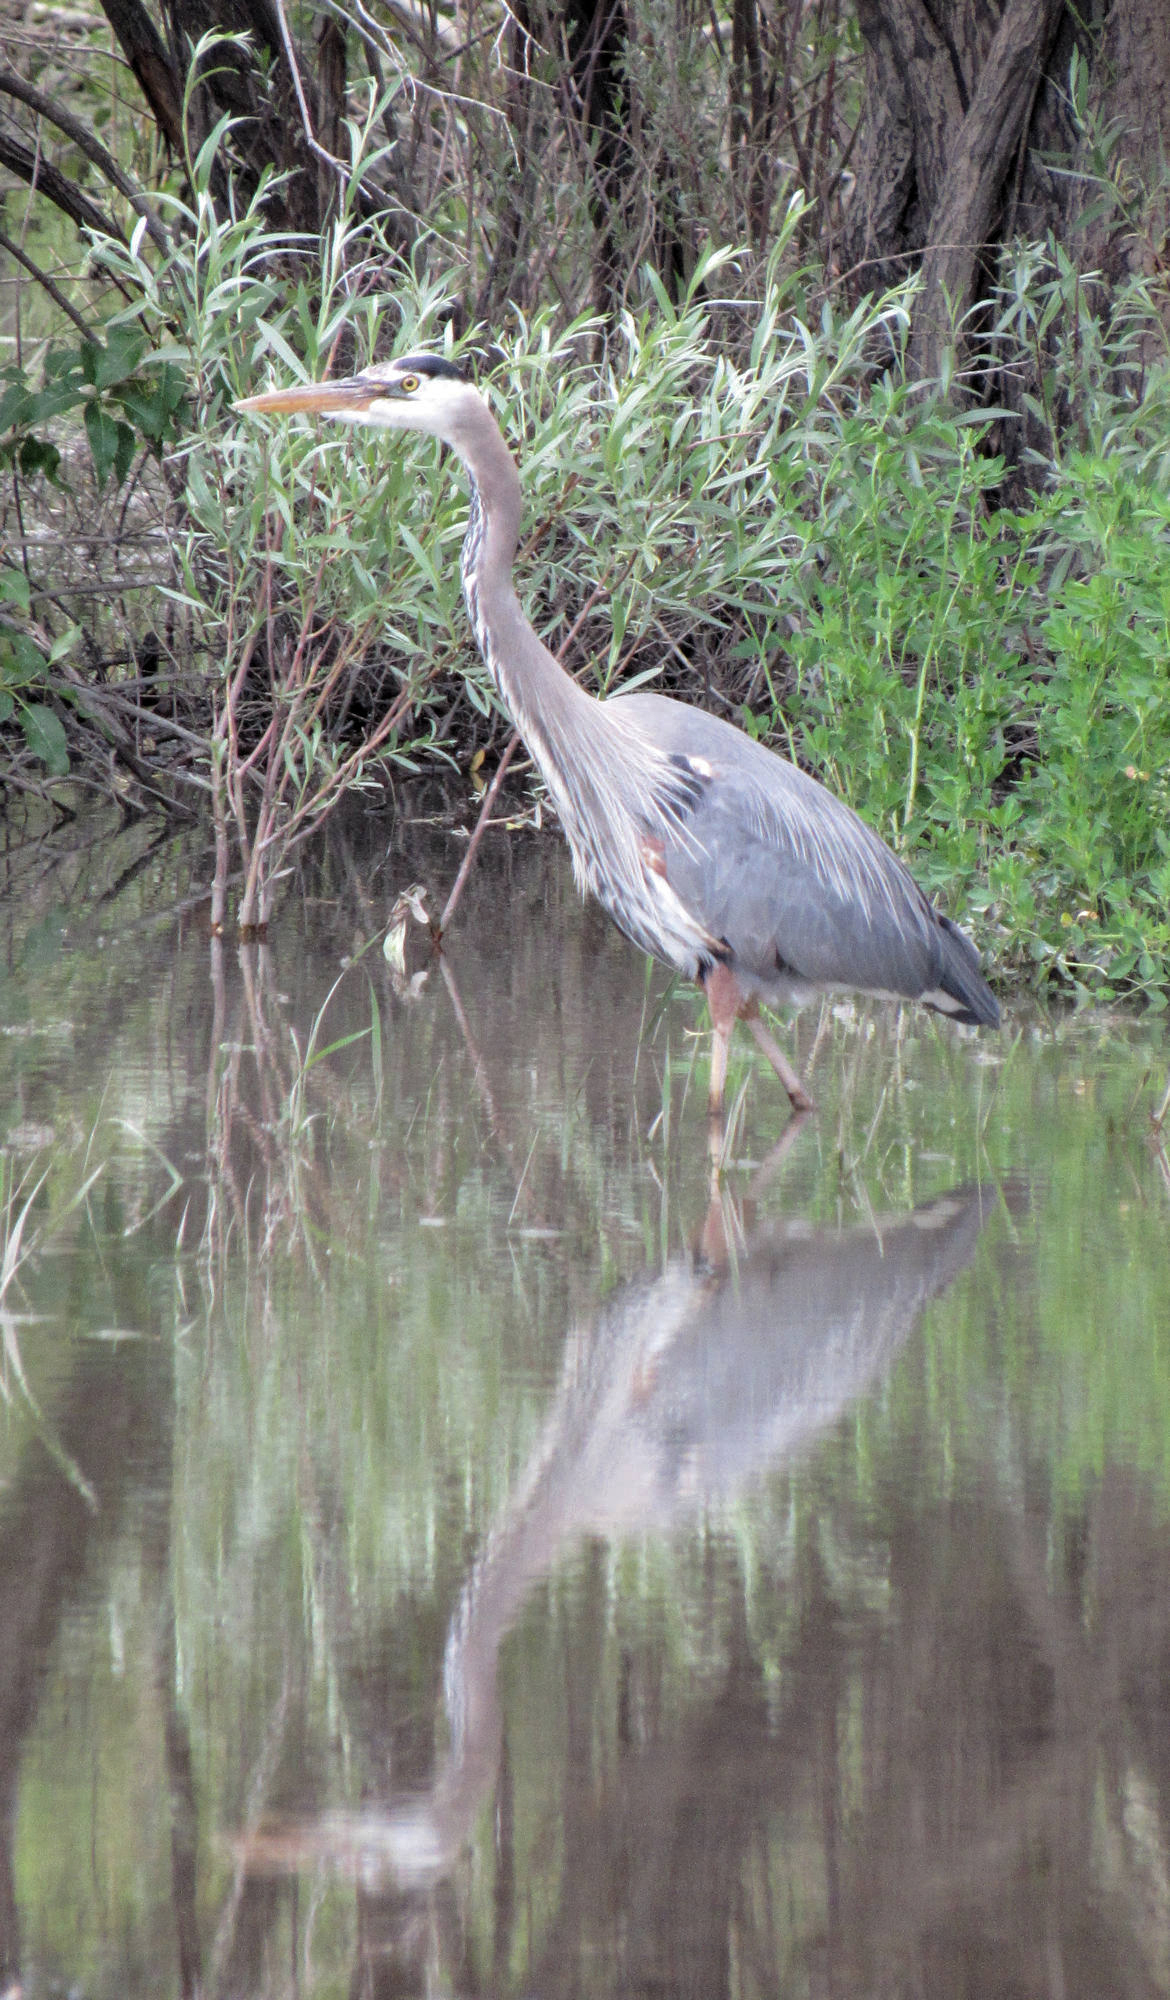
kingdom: Animalia
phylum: Chordata
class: Aves
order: Pelecaniformes
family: Ardeidae
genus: Ardea
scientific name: Ardea herodias
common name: Great blue heron
